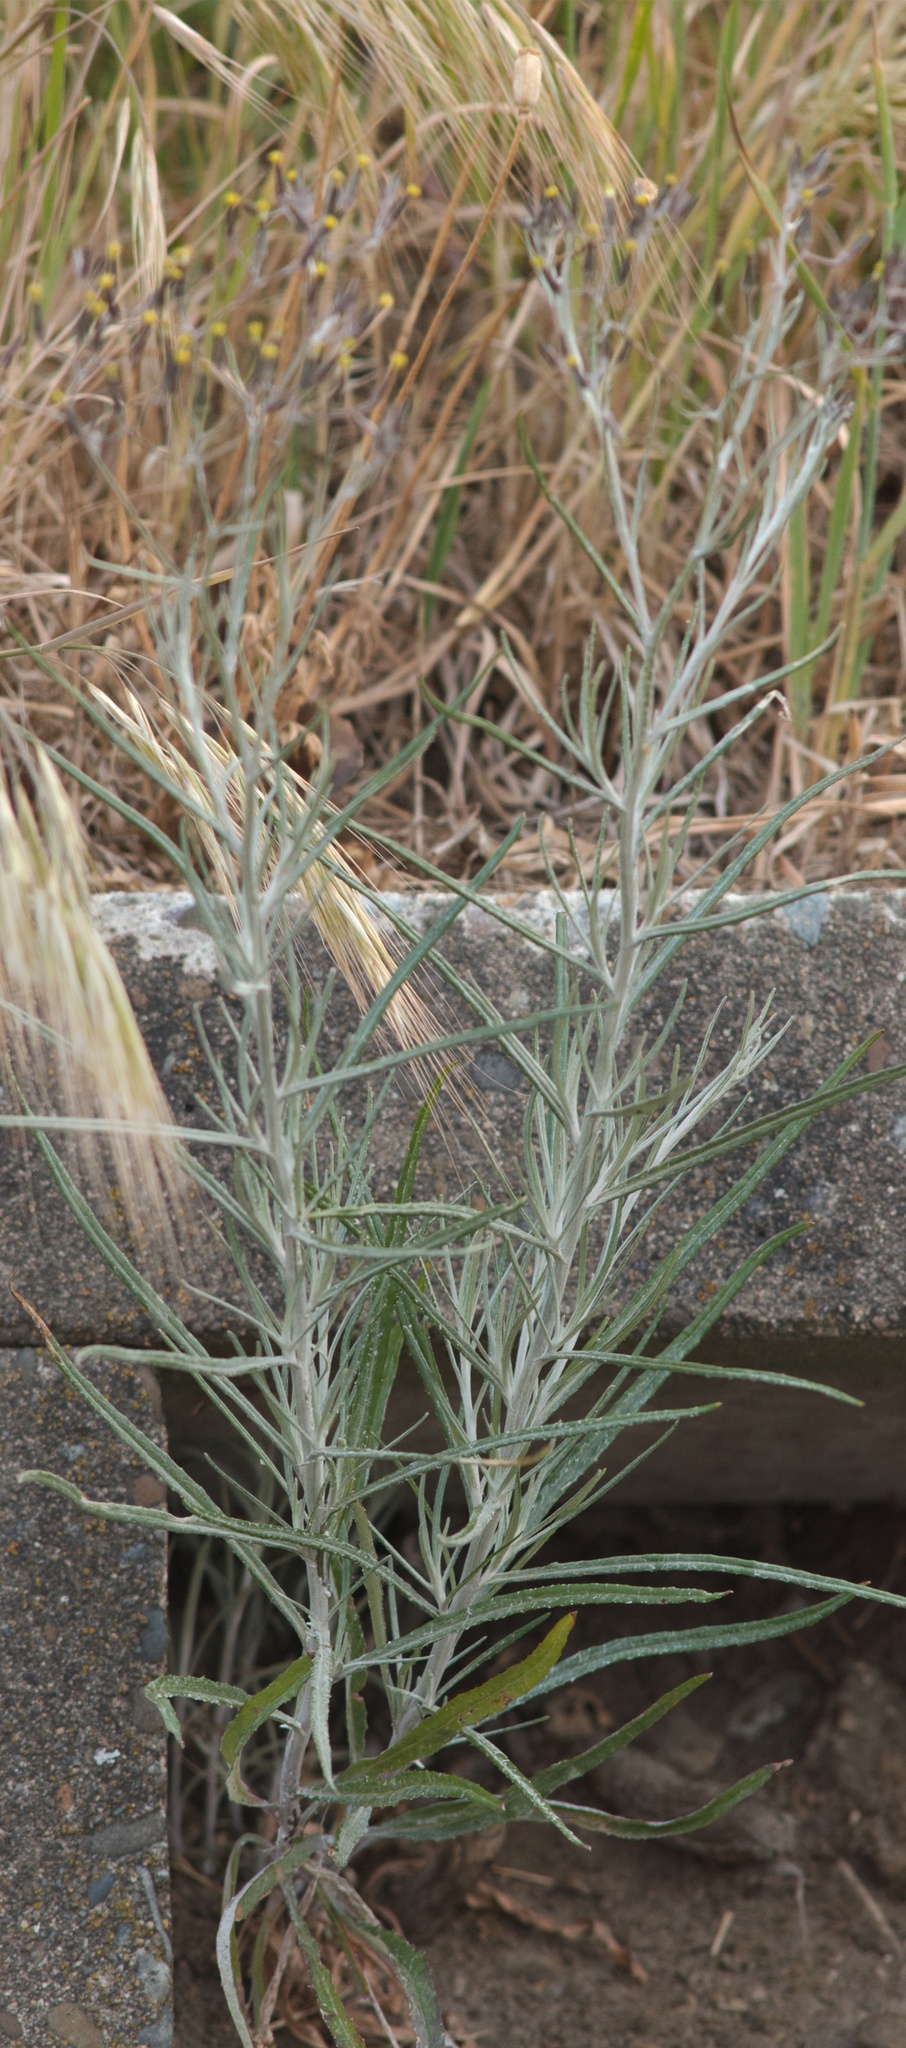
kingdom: Plantae
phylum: Tracheophyta
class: Magnoliopsida
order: Asterales
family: Asteraceae
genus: Senecio
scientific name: Senecio quadridentatus
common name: Cotton fireweed
